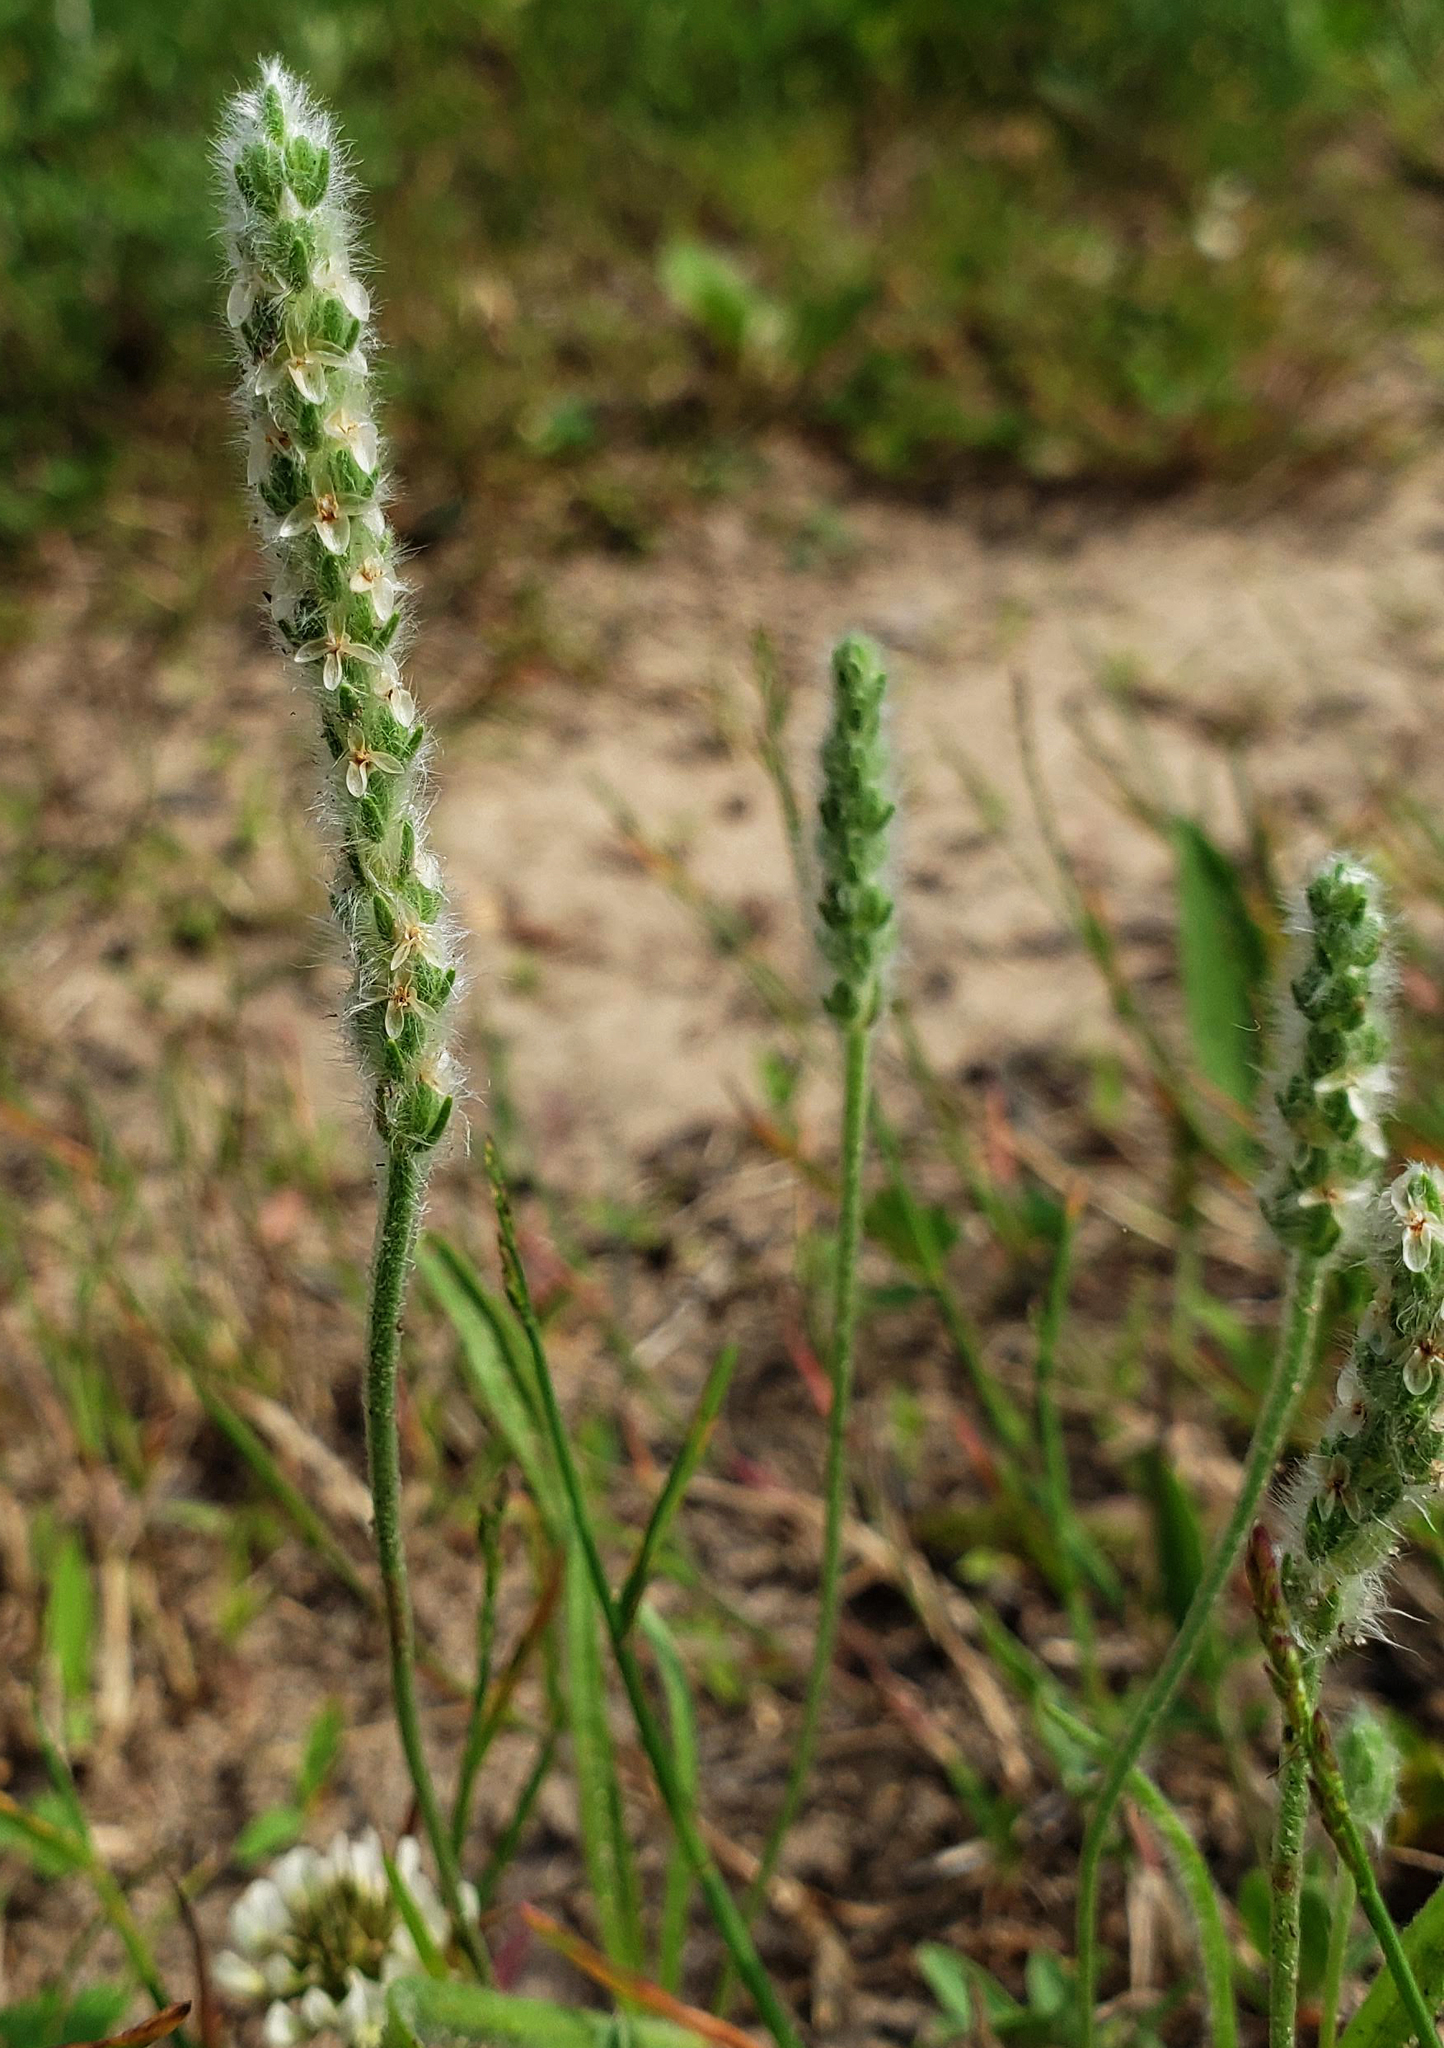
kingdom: Plantae
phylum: Tracheophyta
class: Magnoliopsida
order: Lamiales
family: Plantaginaceae
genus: Plantago
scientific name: Plantago patagonica
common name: Patagonia indian-wheat
